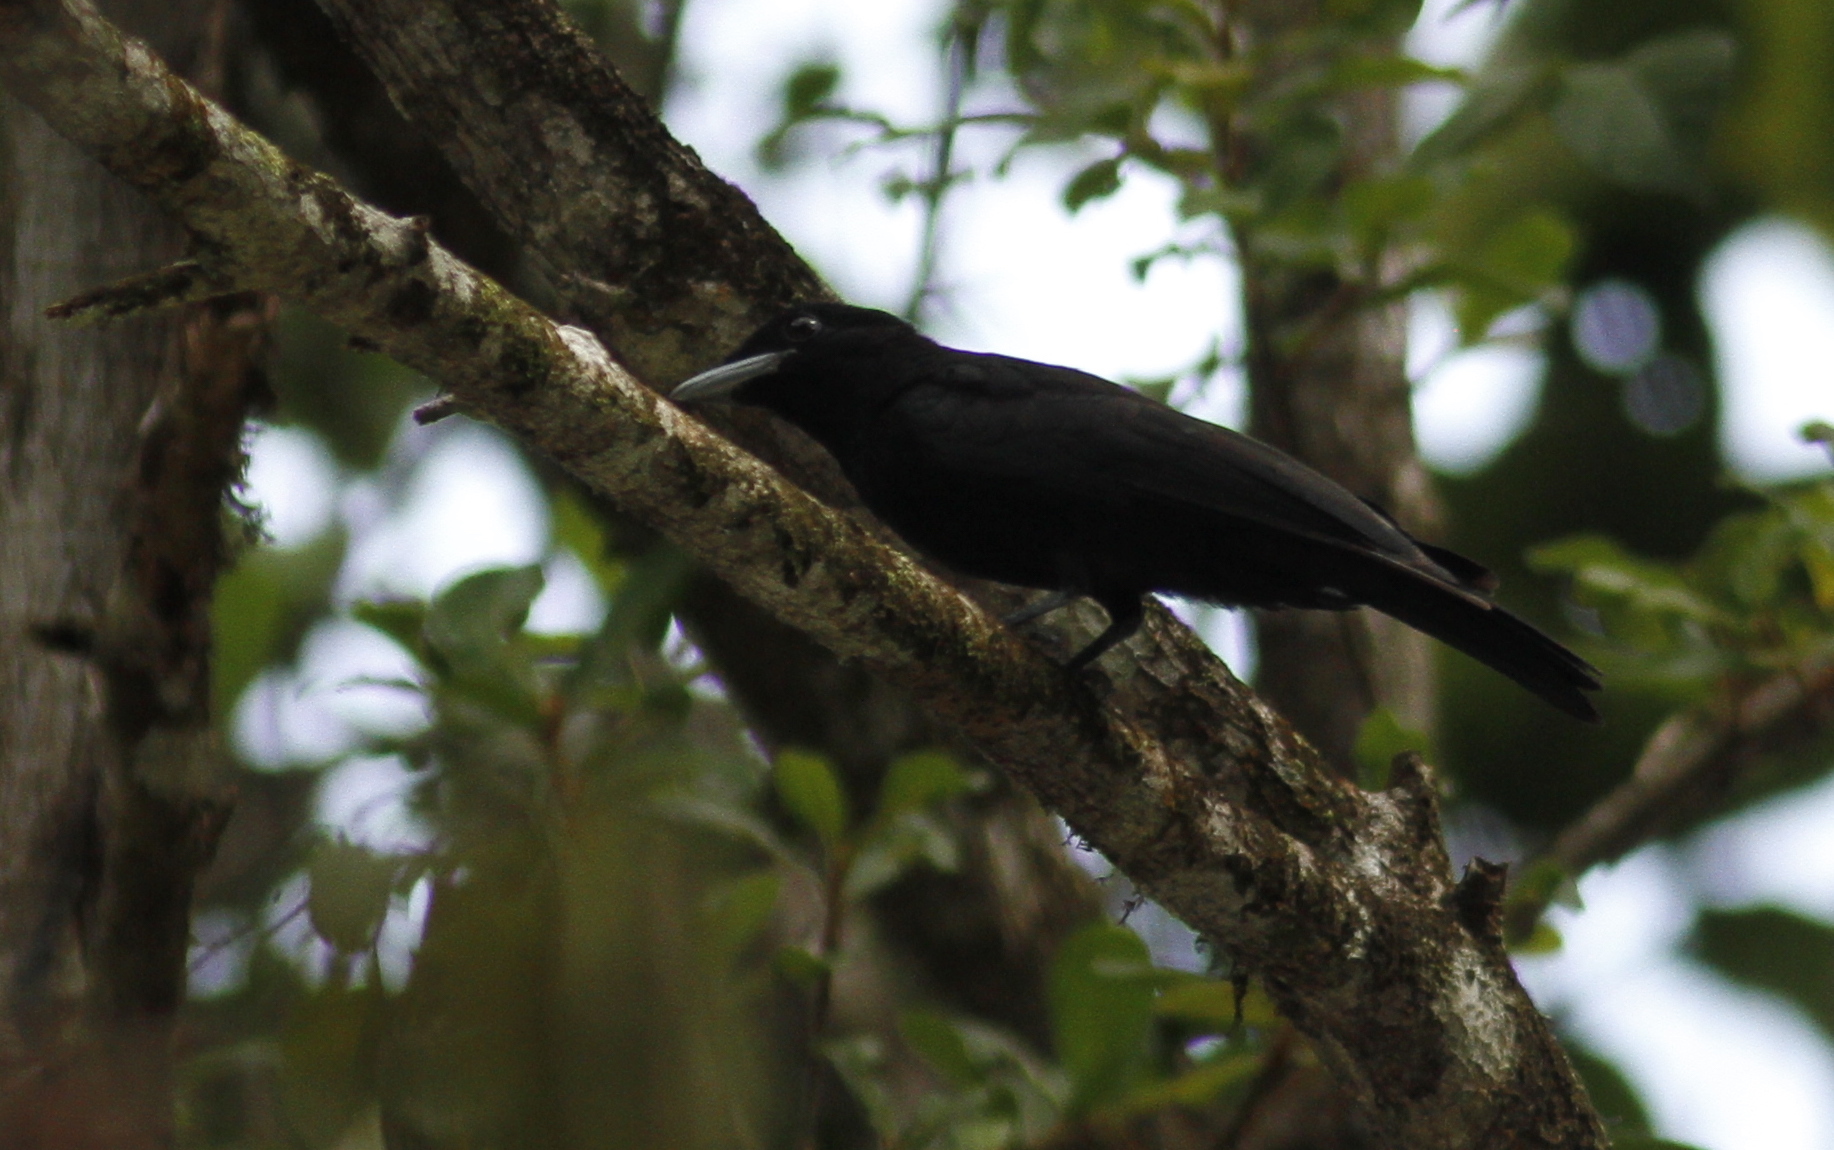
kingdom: Animalia
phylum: Chordata
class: Aves
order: Passeriformes
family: Cotingidae
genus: Querula
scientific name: Querula purpurata
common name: Purple-throated fruitcrow
